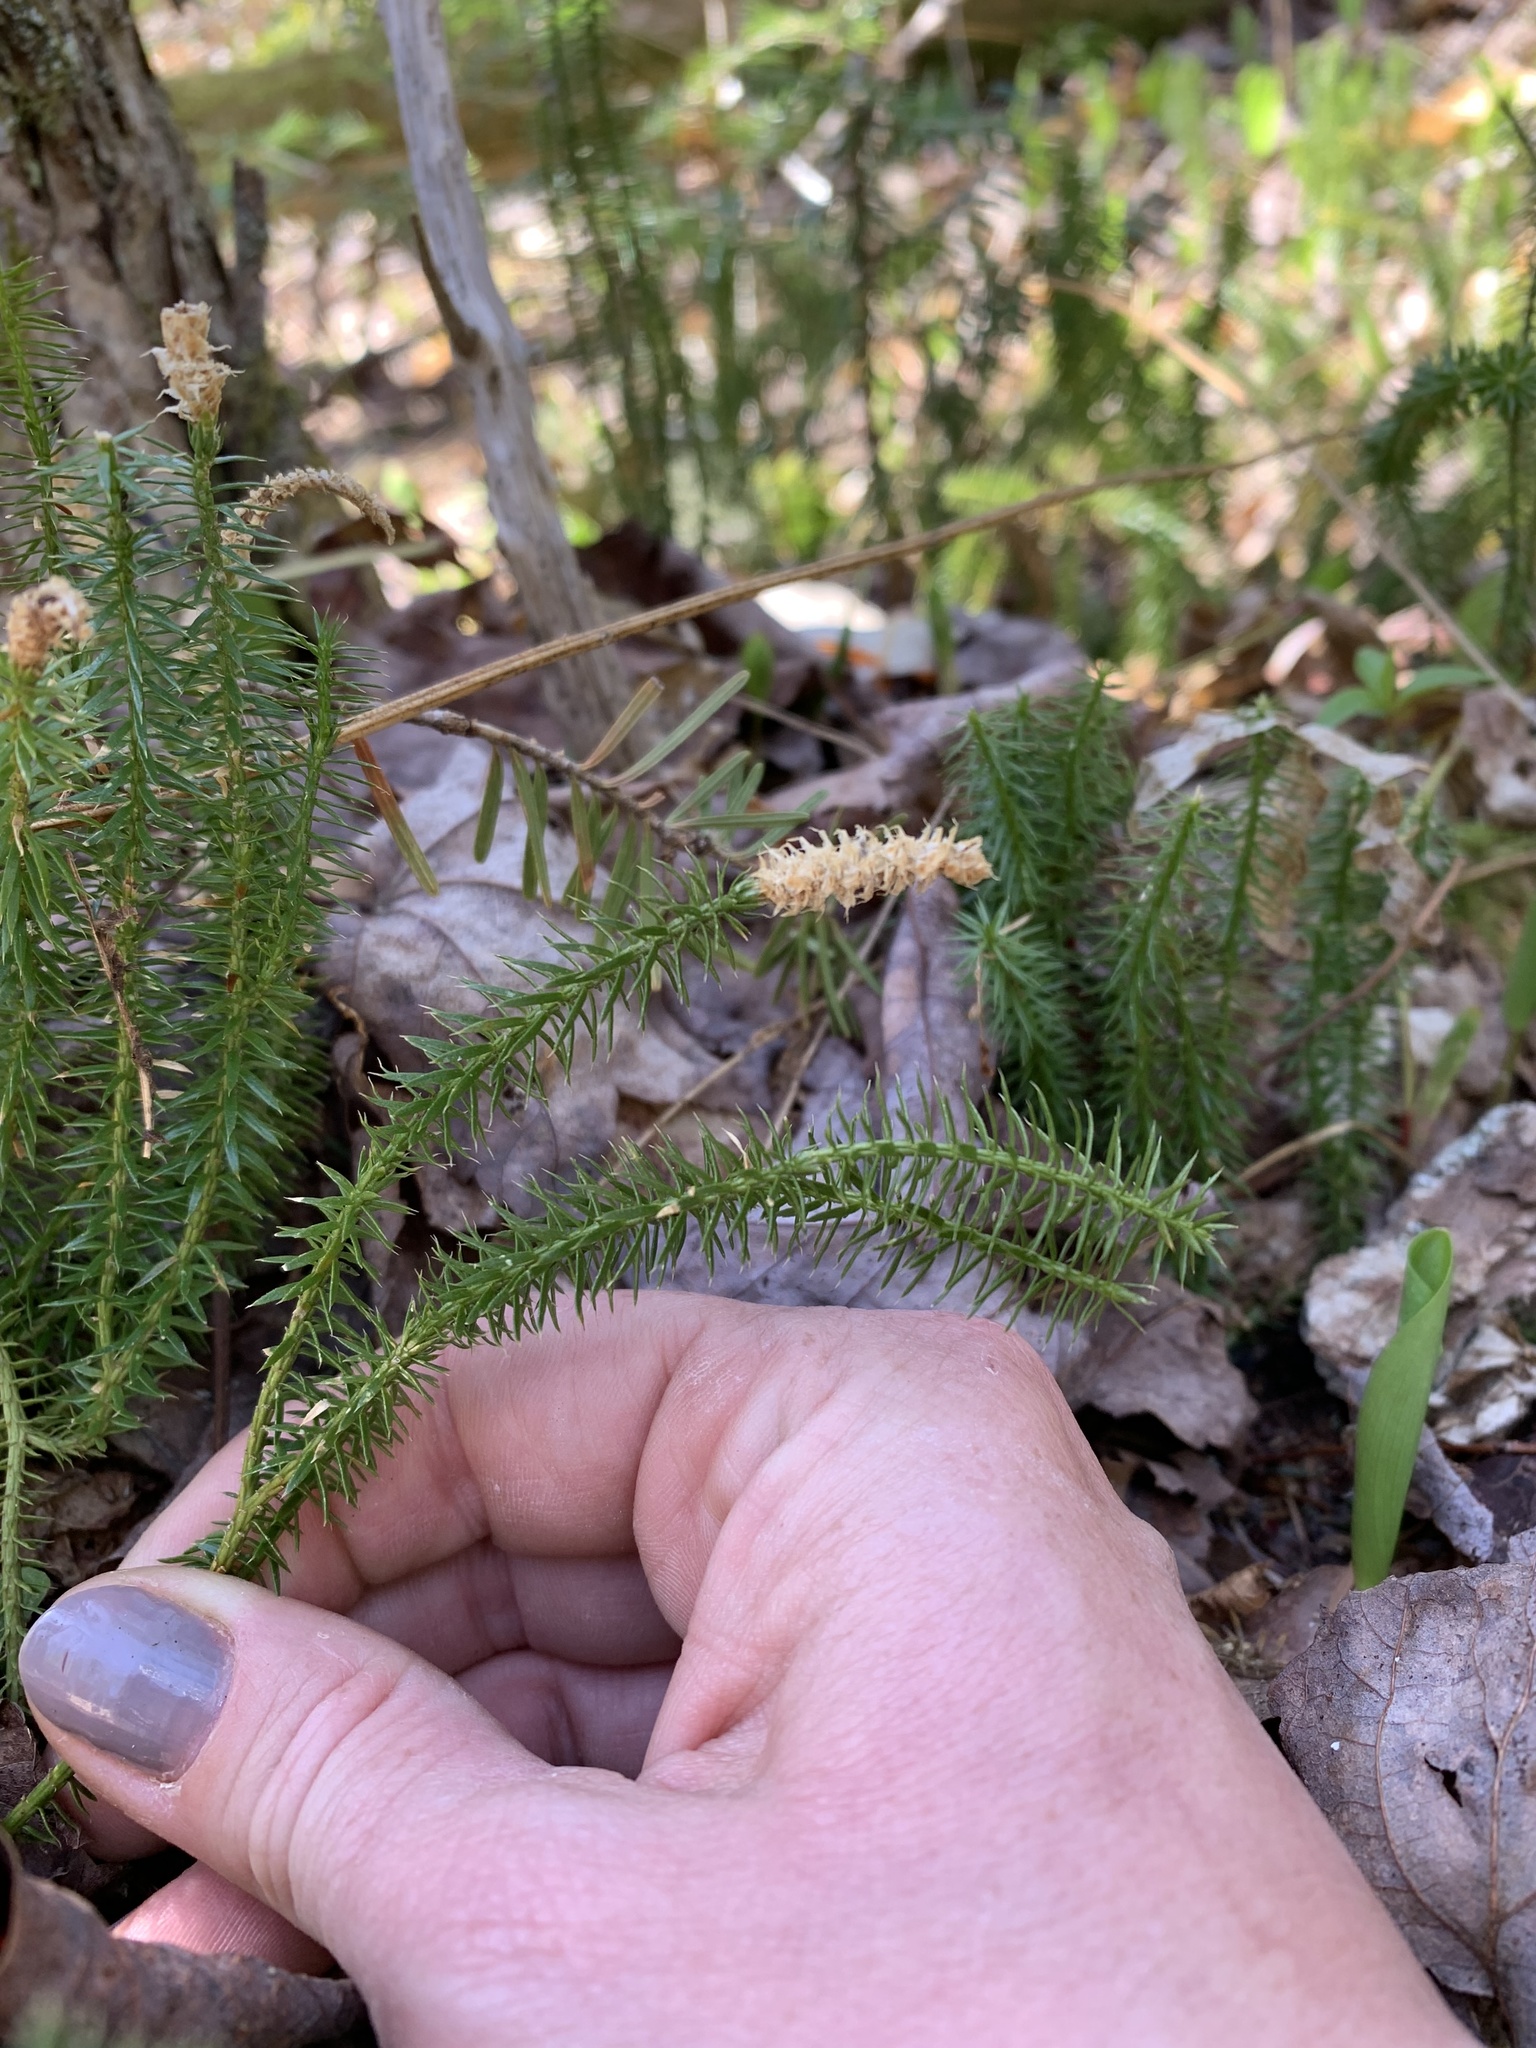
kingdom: Plantae
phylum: Tracheophyta
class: Lycopodiopsida
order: Lycopodiales
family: Lycopodiaceae
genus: Spinulum
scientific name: Spinulum annotinum
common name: Interrupted club-moss
